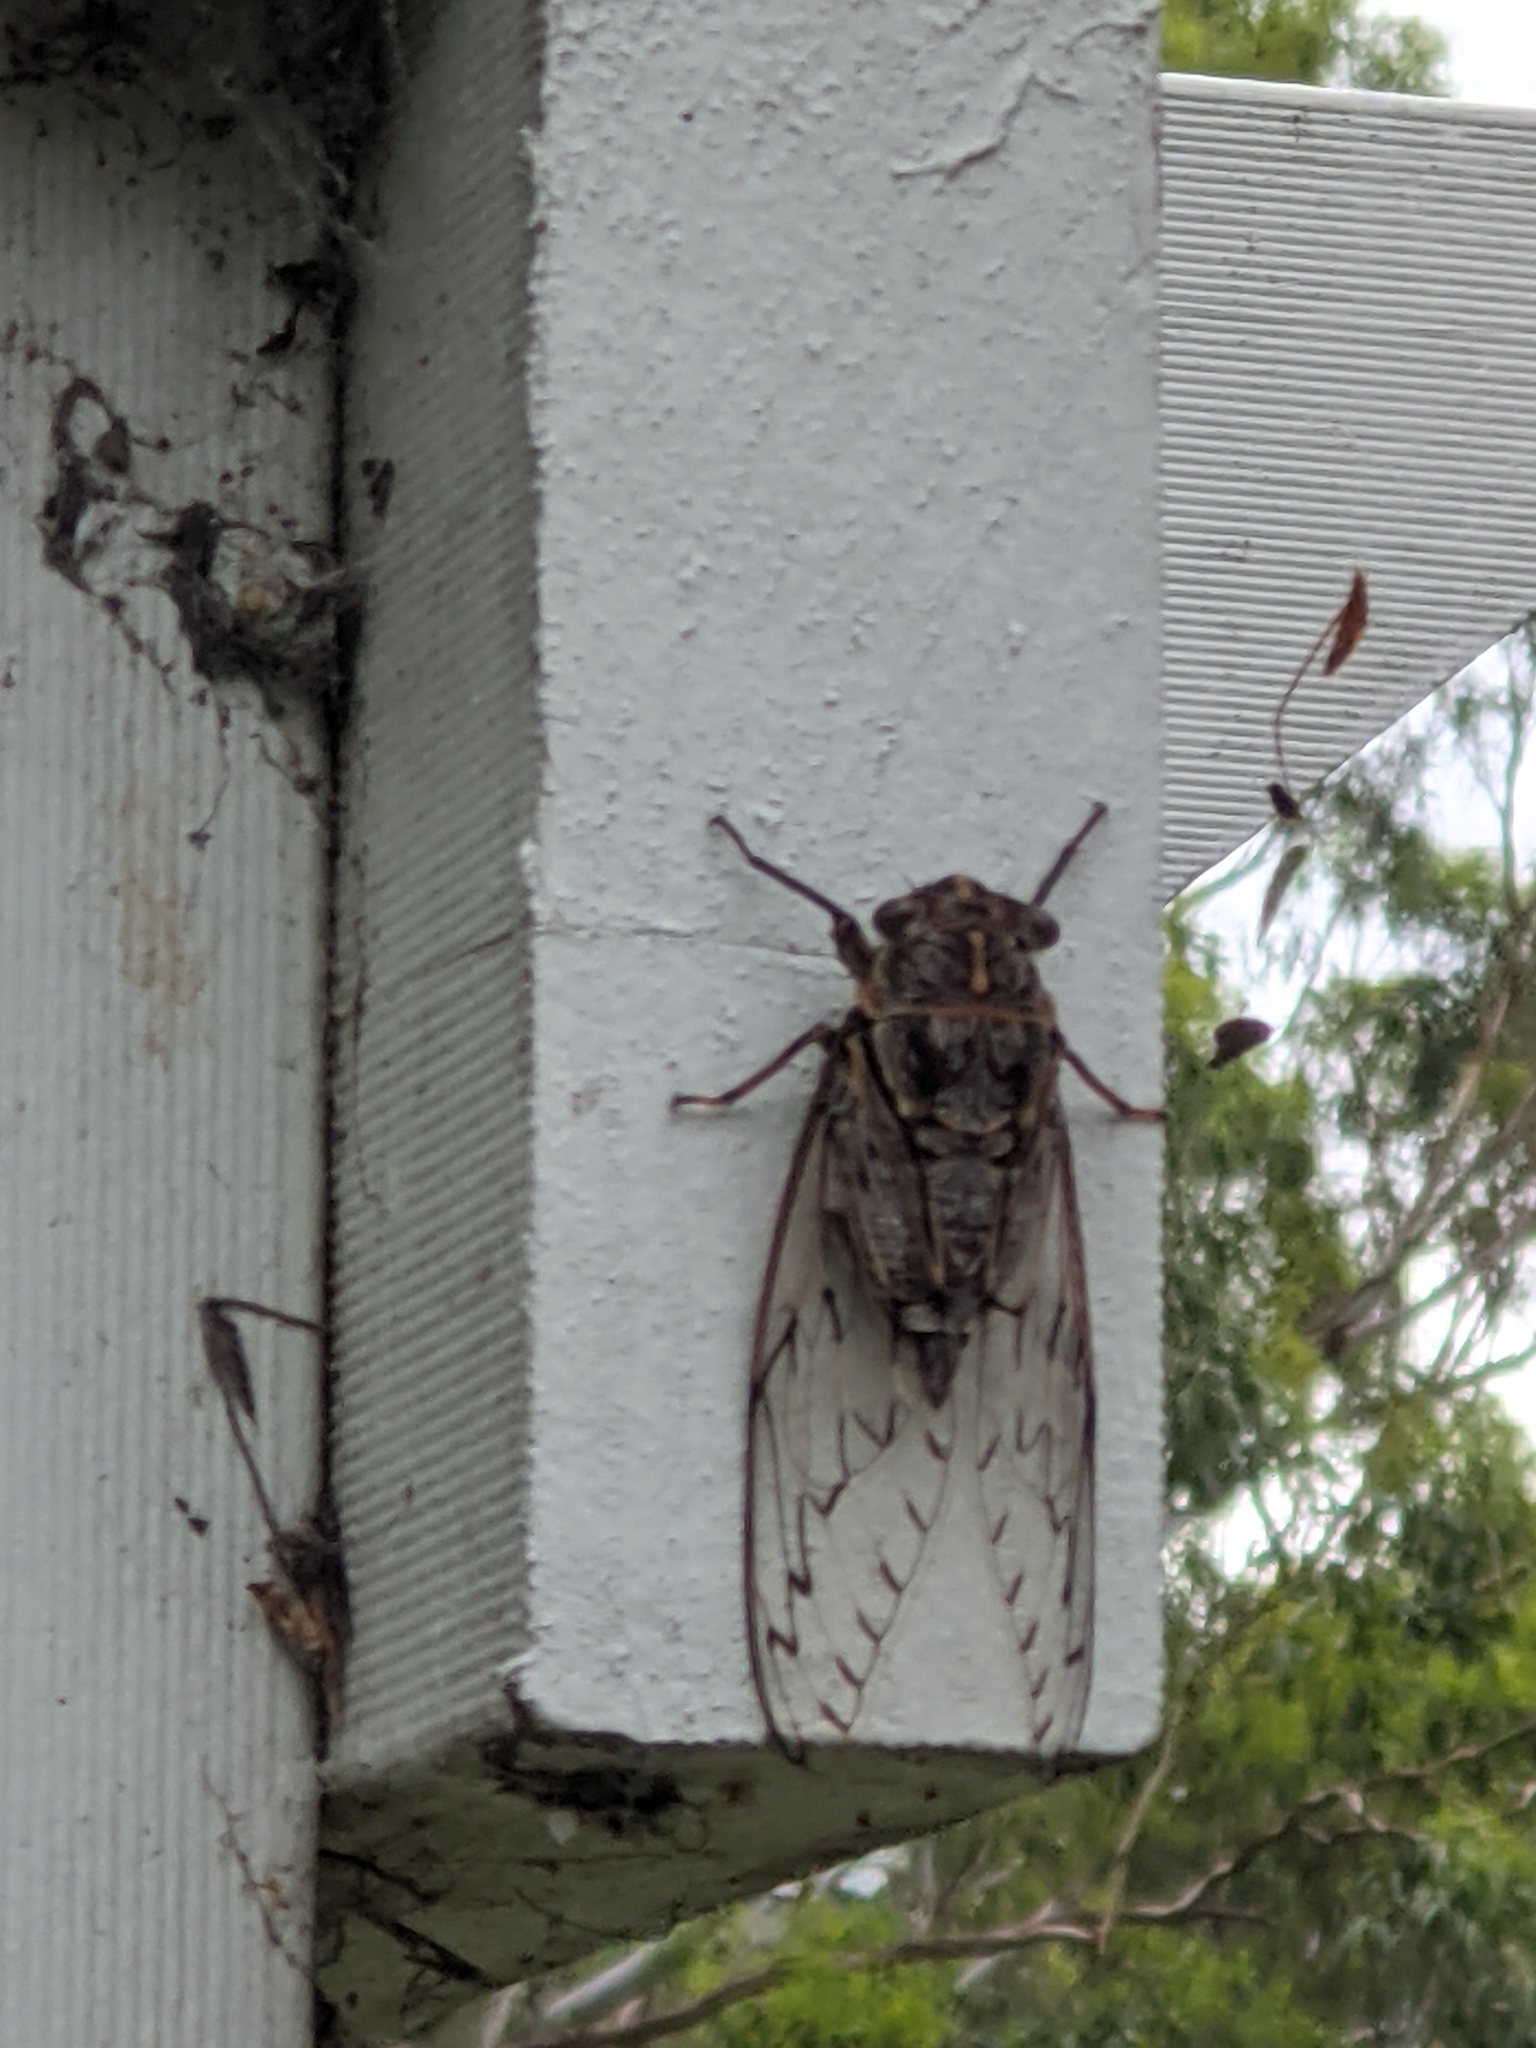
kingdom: Animalia
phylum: Arthropoda
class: Insecta
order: Hemiptera
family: Cicadidae
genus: Henicopsaltria
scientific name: Henicopsaltria eydouxii
